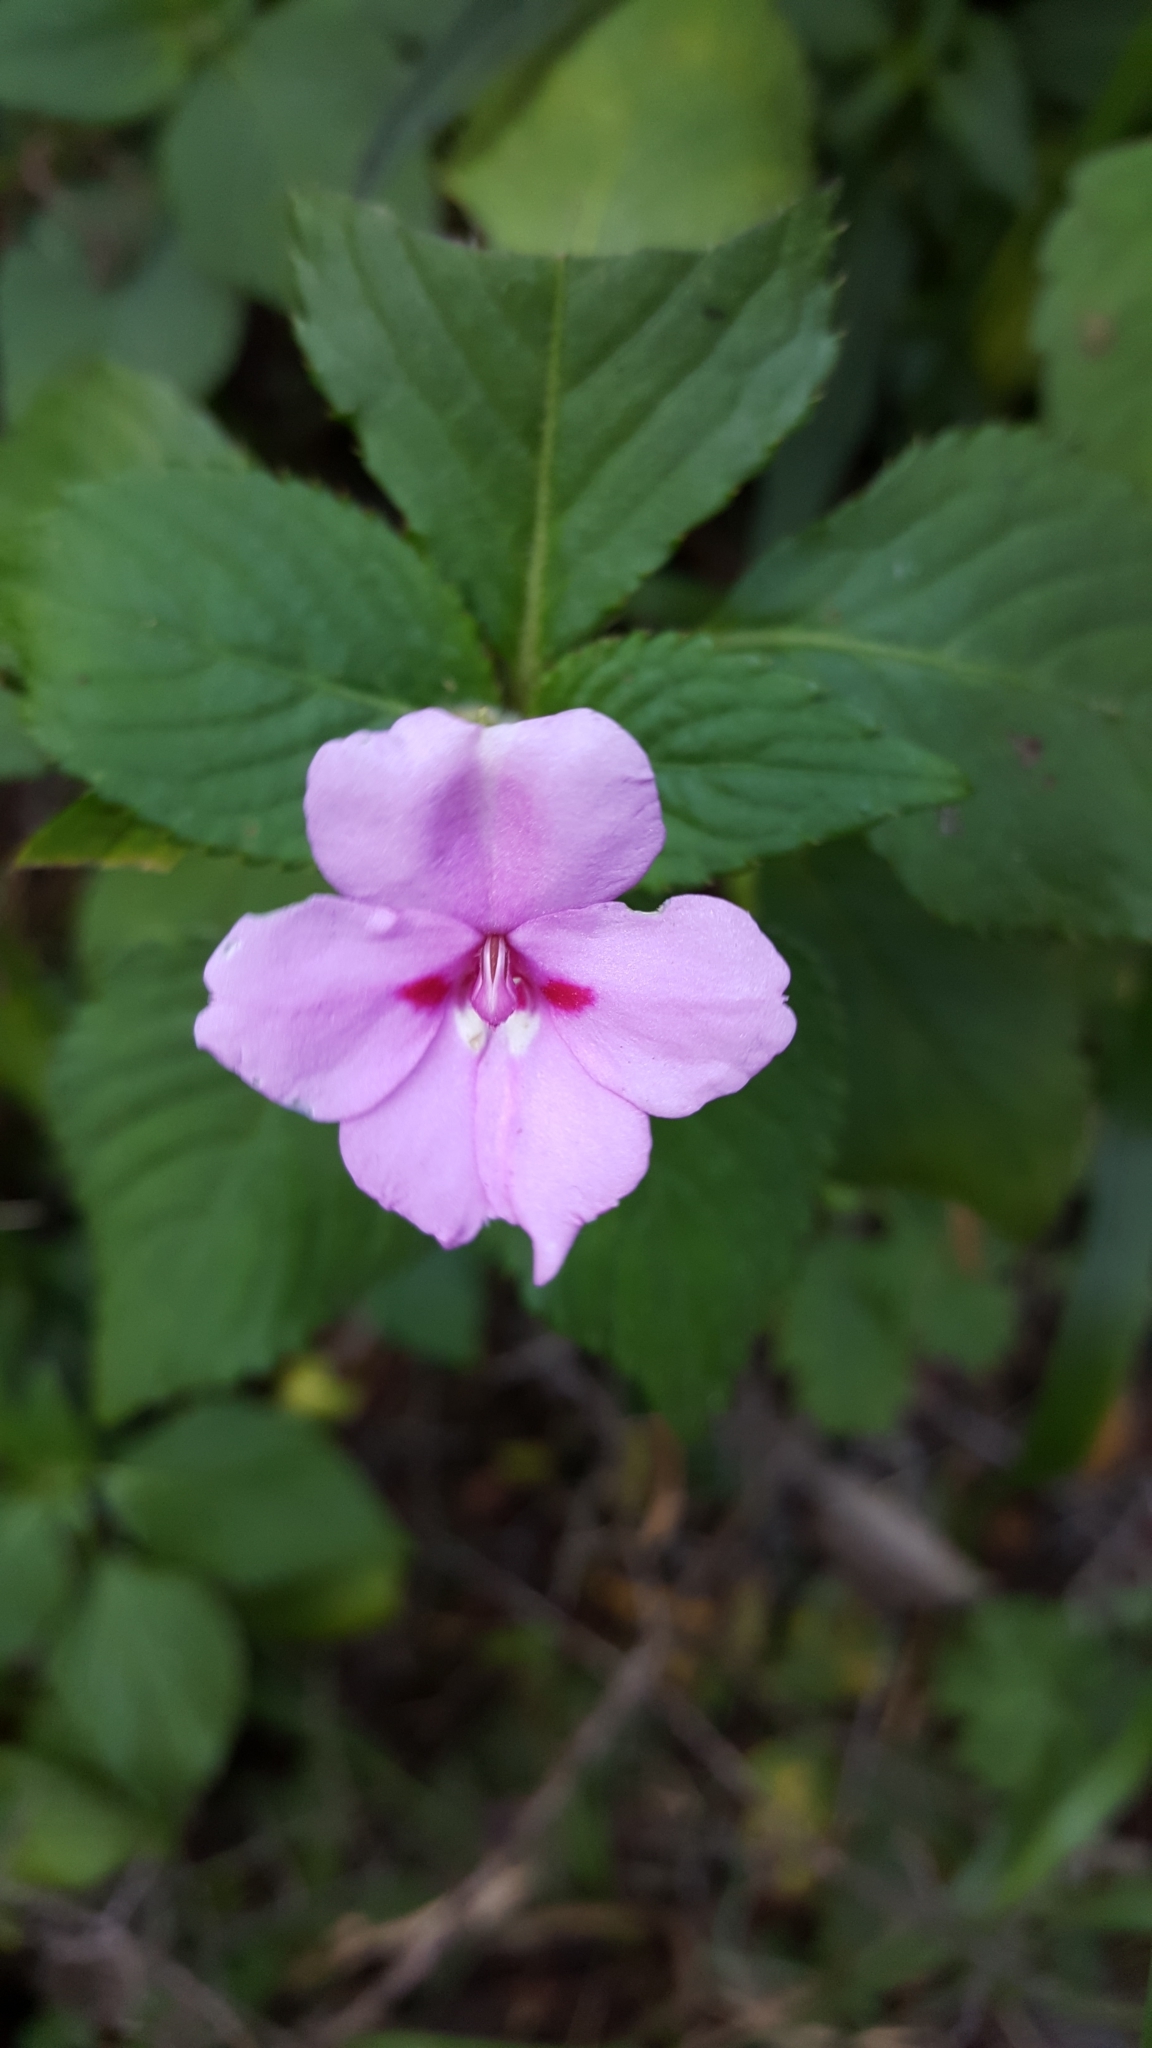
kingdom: Plantae
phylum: Tracheophyta
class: Magnoliopsida
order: Ericales
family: Balsaminaceae
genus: Impatiens
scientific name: Impatiens sylvicola
